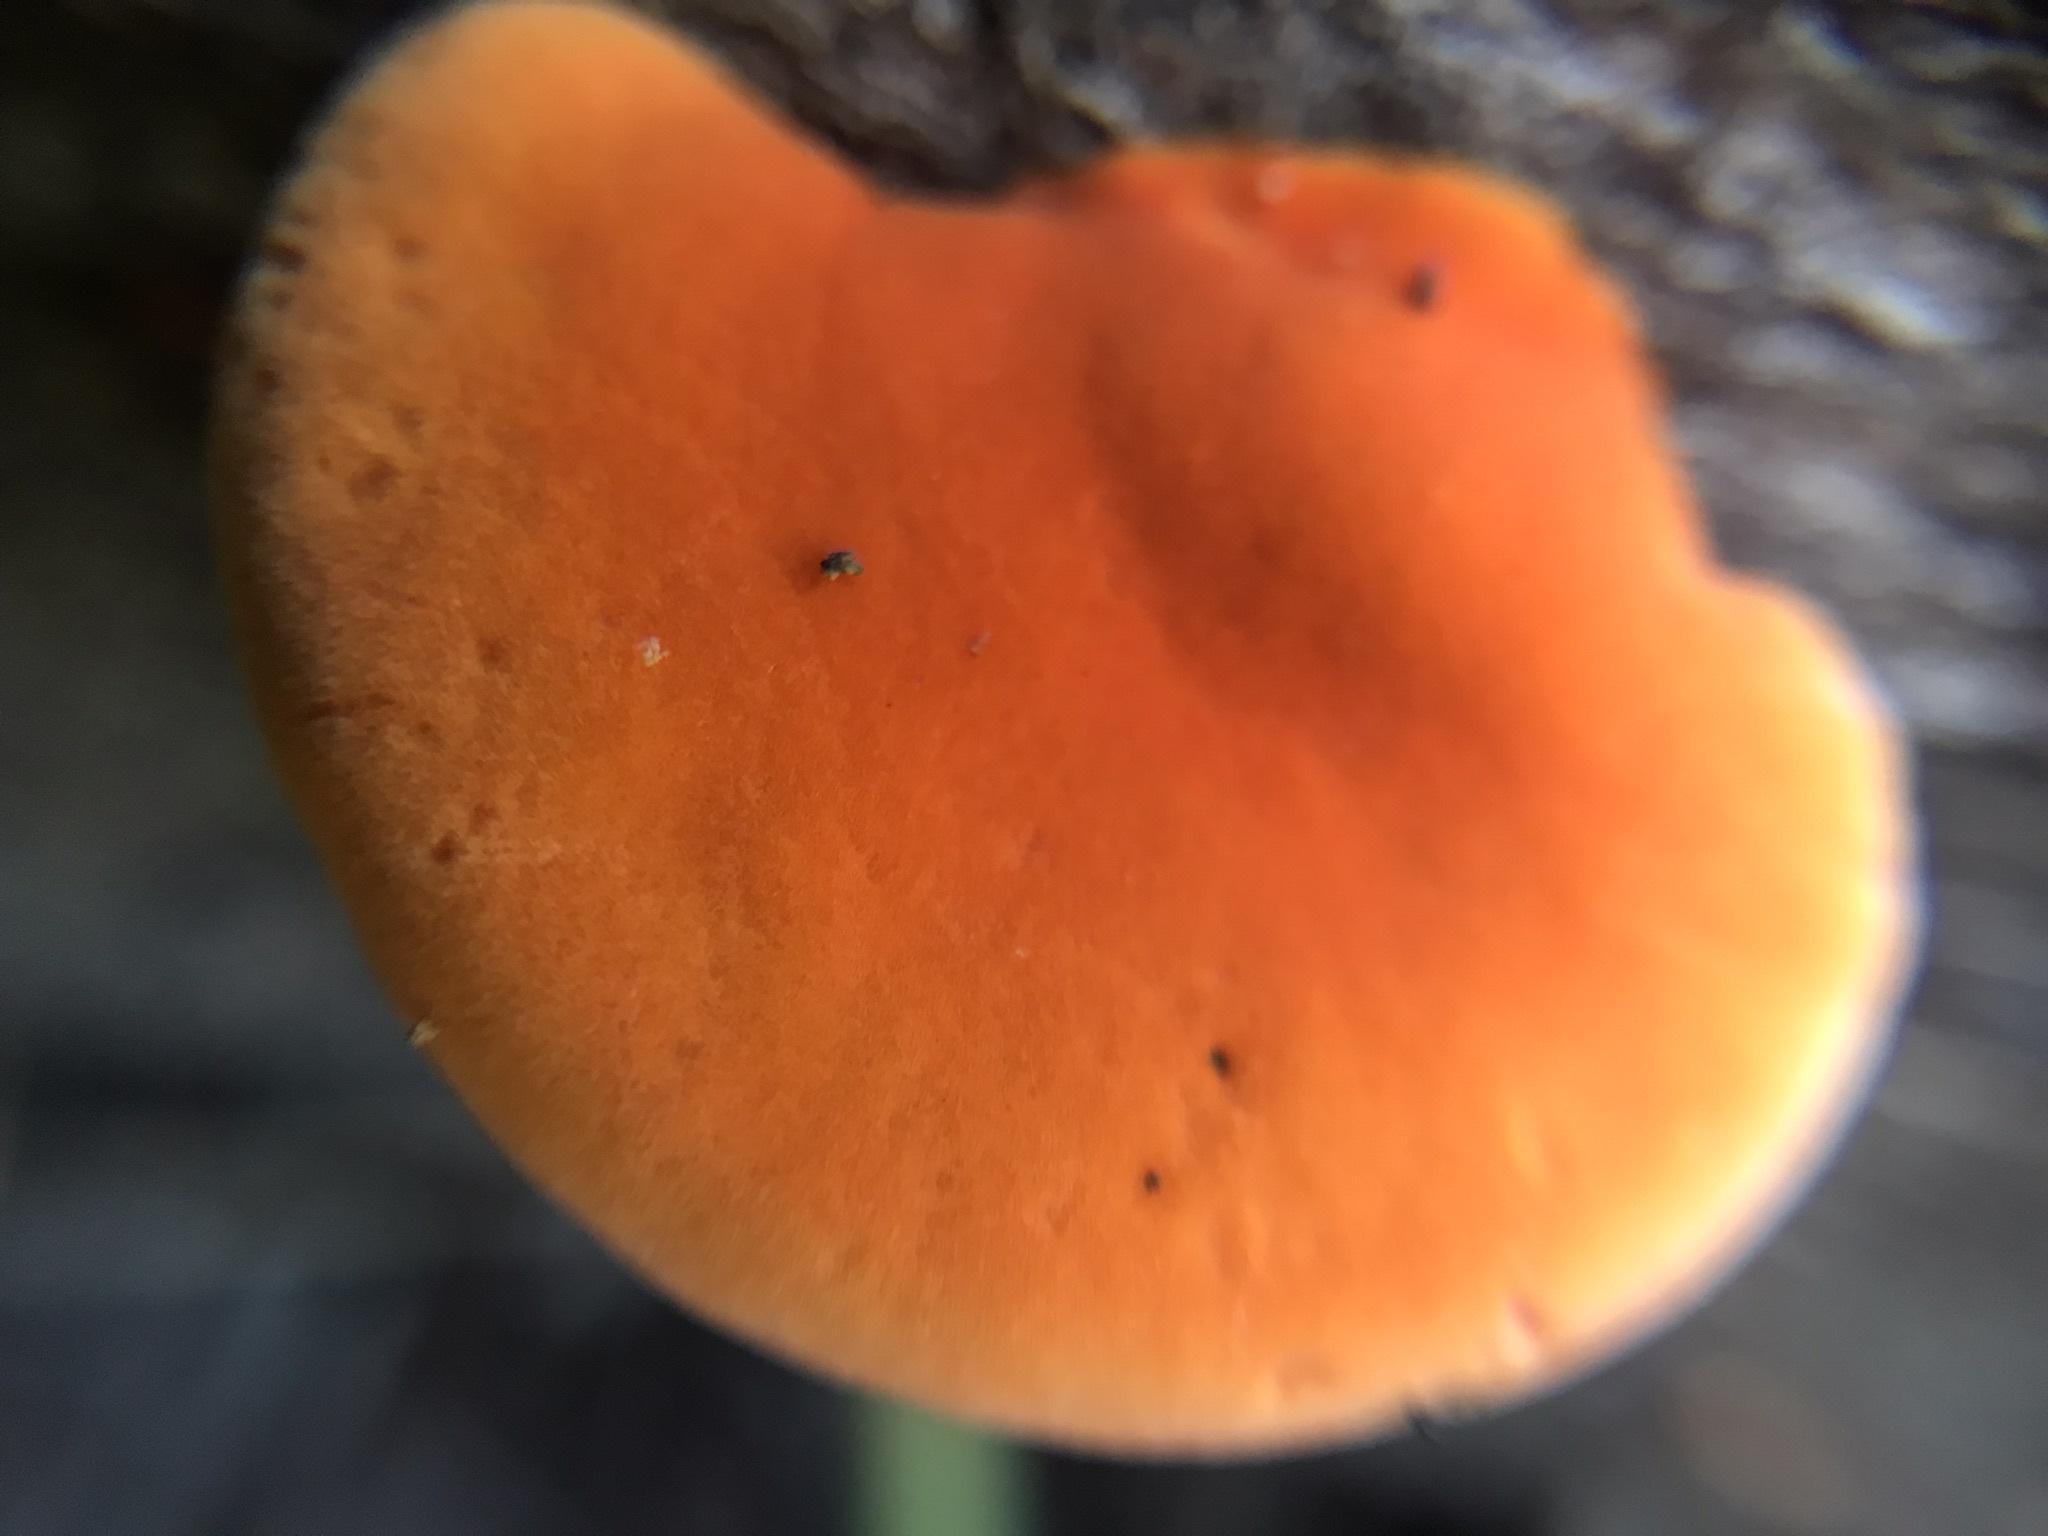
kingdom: Fungi
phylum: Basidiomycota
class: Agaricomycetes
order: Polyporales
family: Polyporaceae
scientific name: Polyporaceae
